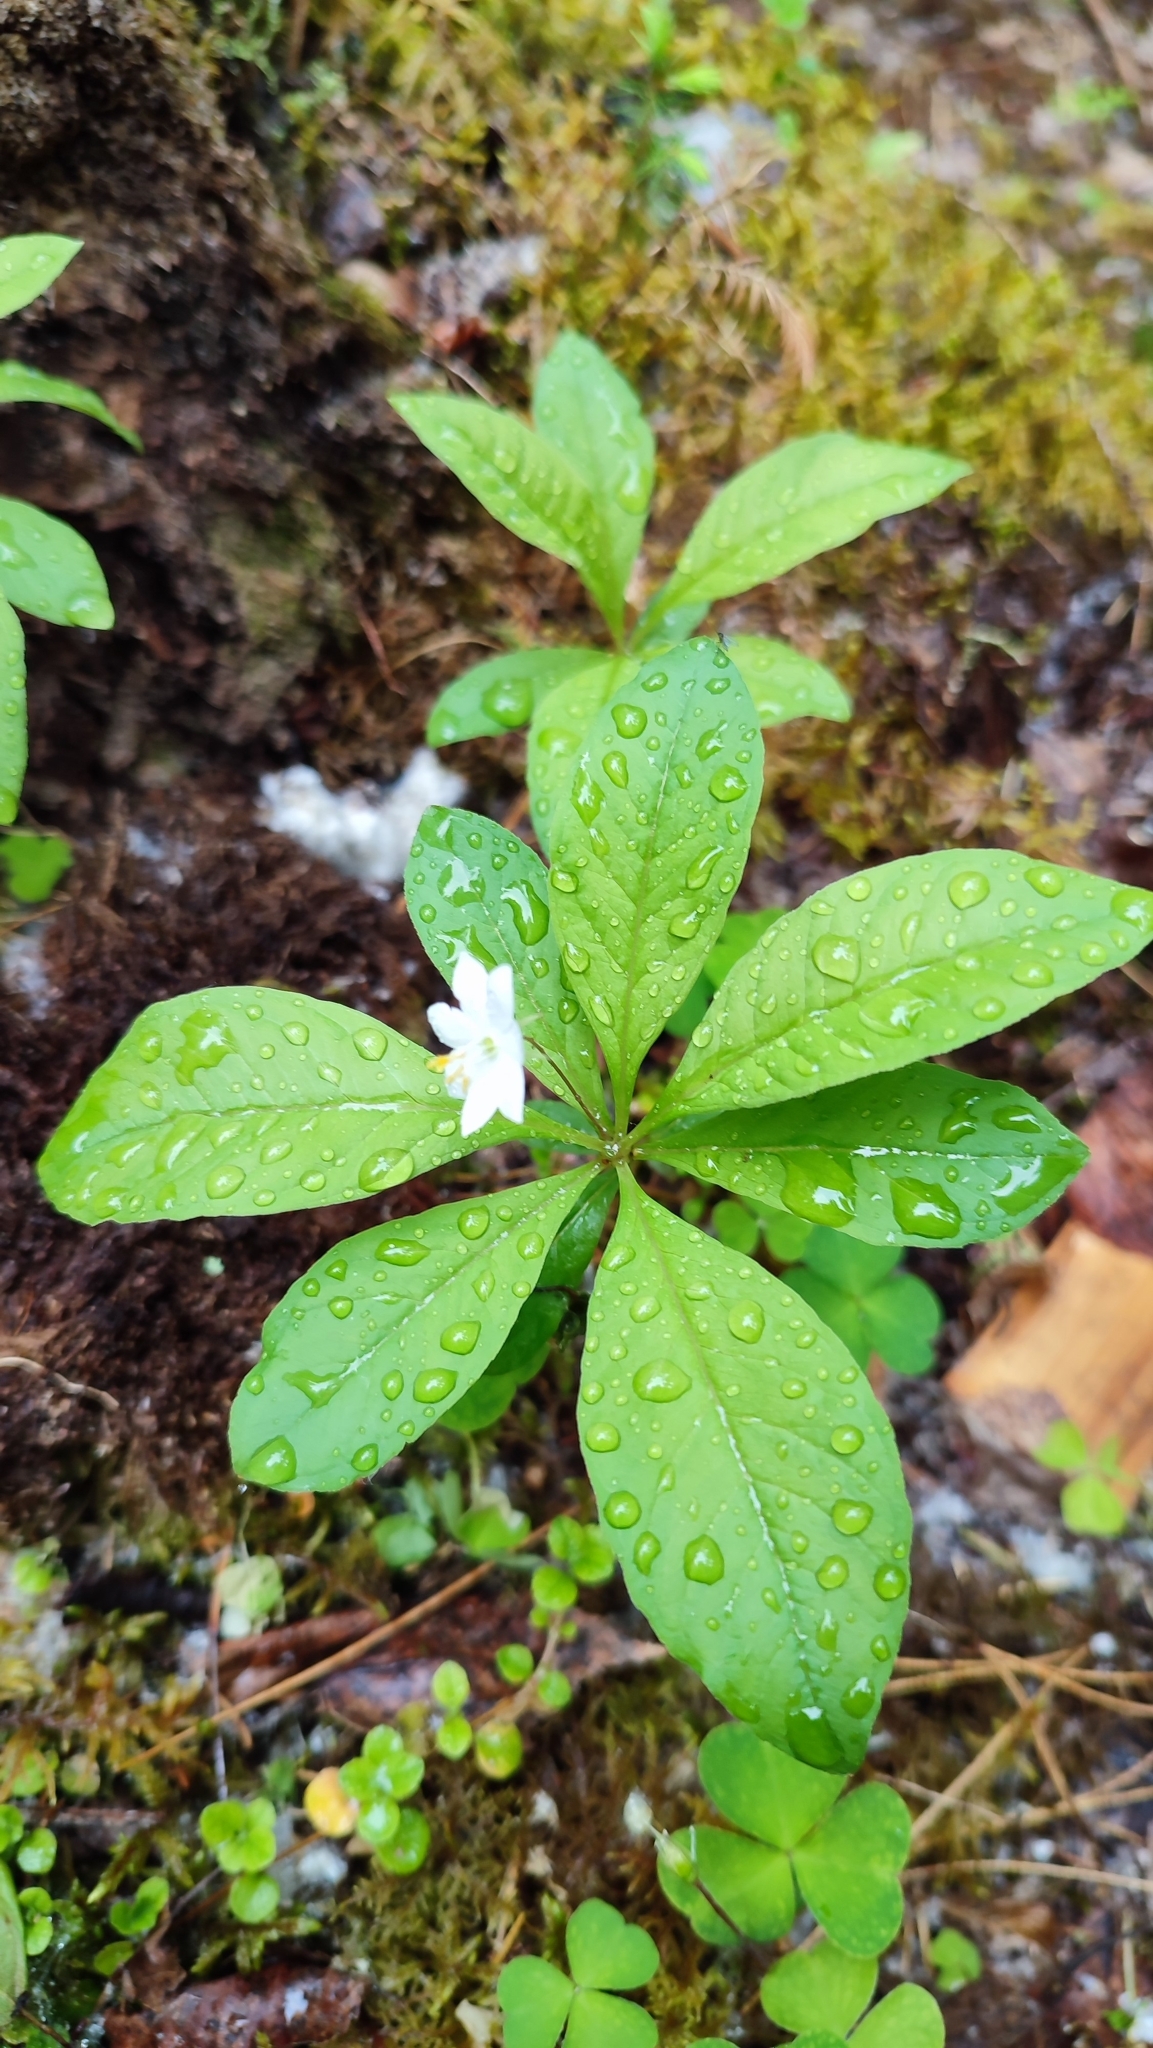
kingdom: Plantae
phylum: Tracheophyta
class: Magnoliopsida
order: Ericales
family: Primulaceae
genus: Lysimachia
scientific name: Lysimachia europaea
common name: Arctic starflower
